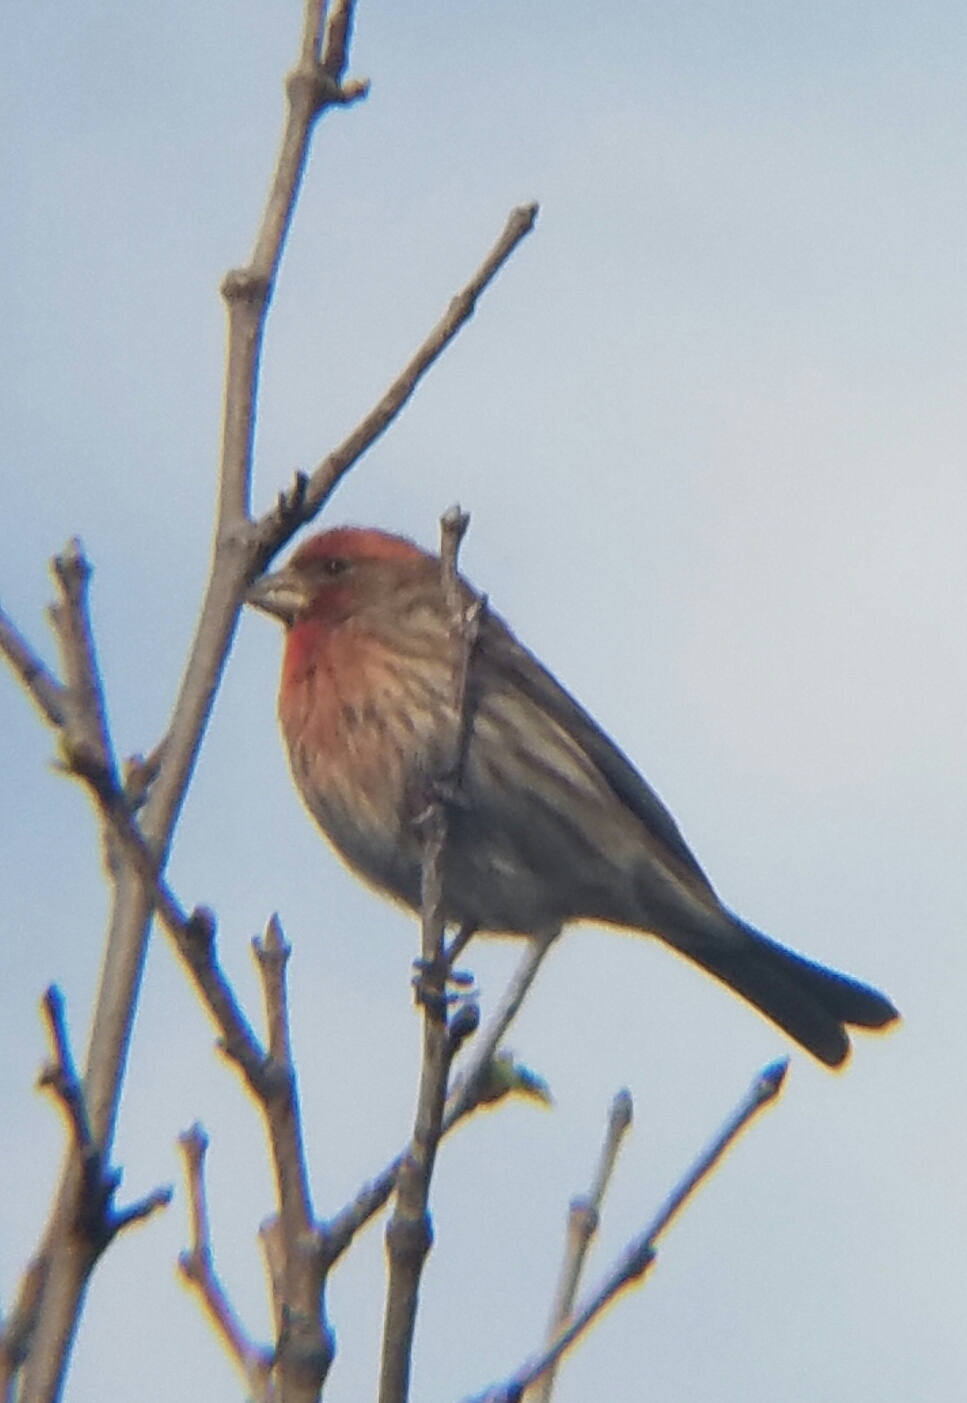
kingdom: Animalia
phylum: Chordata
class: Aves
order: Passeriformes
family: Fringillidae
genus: Haemorhous
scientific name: Haemorhous mexicanus
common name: House finch
